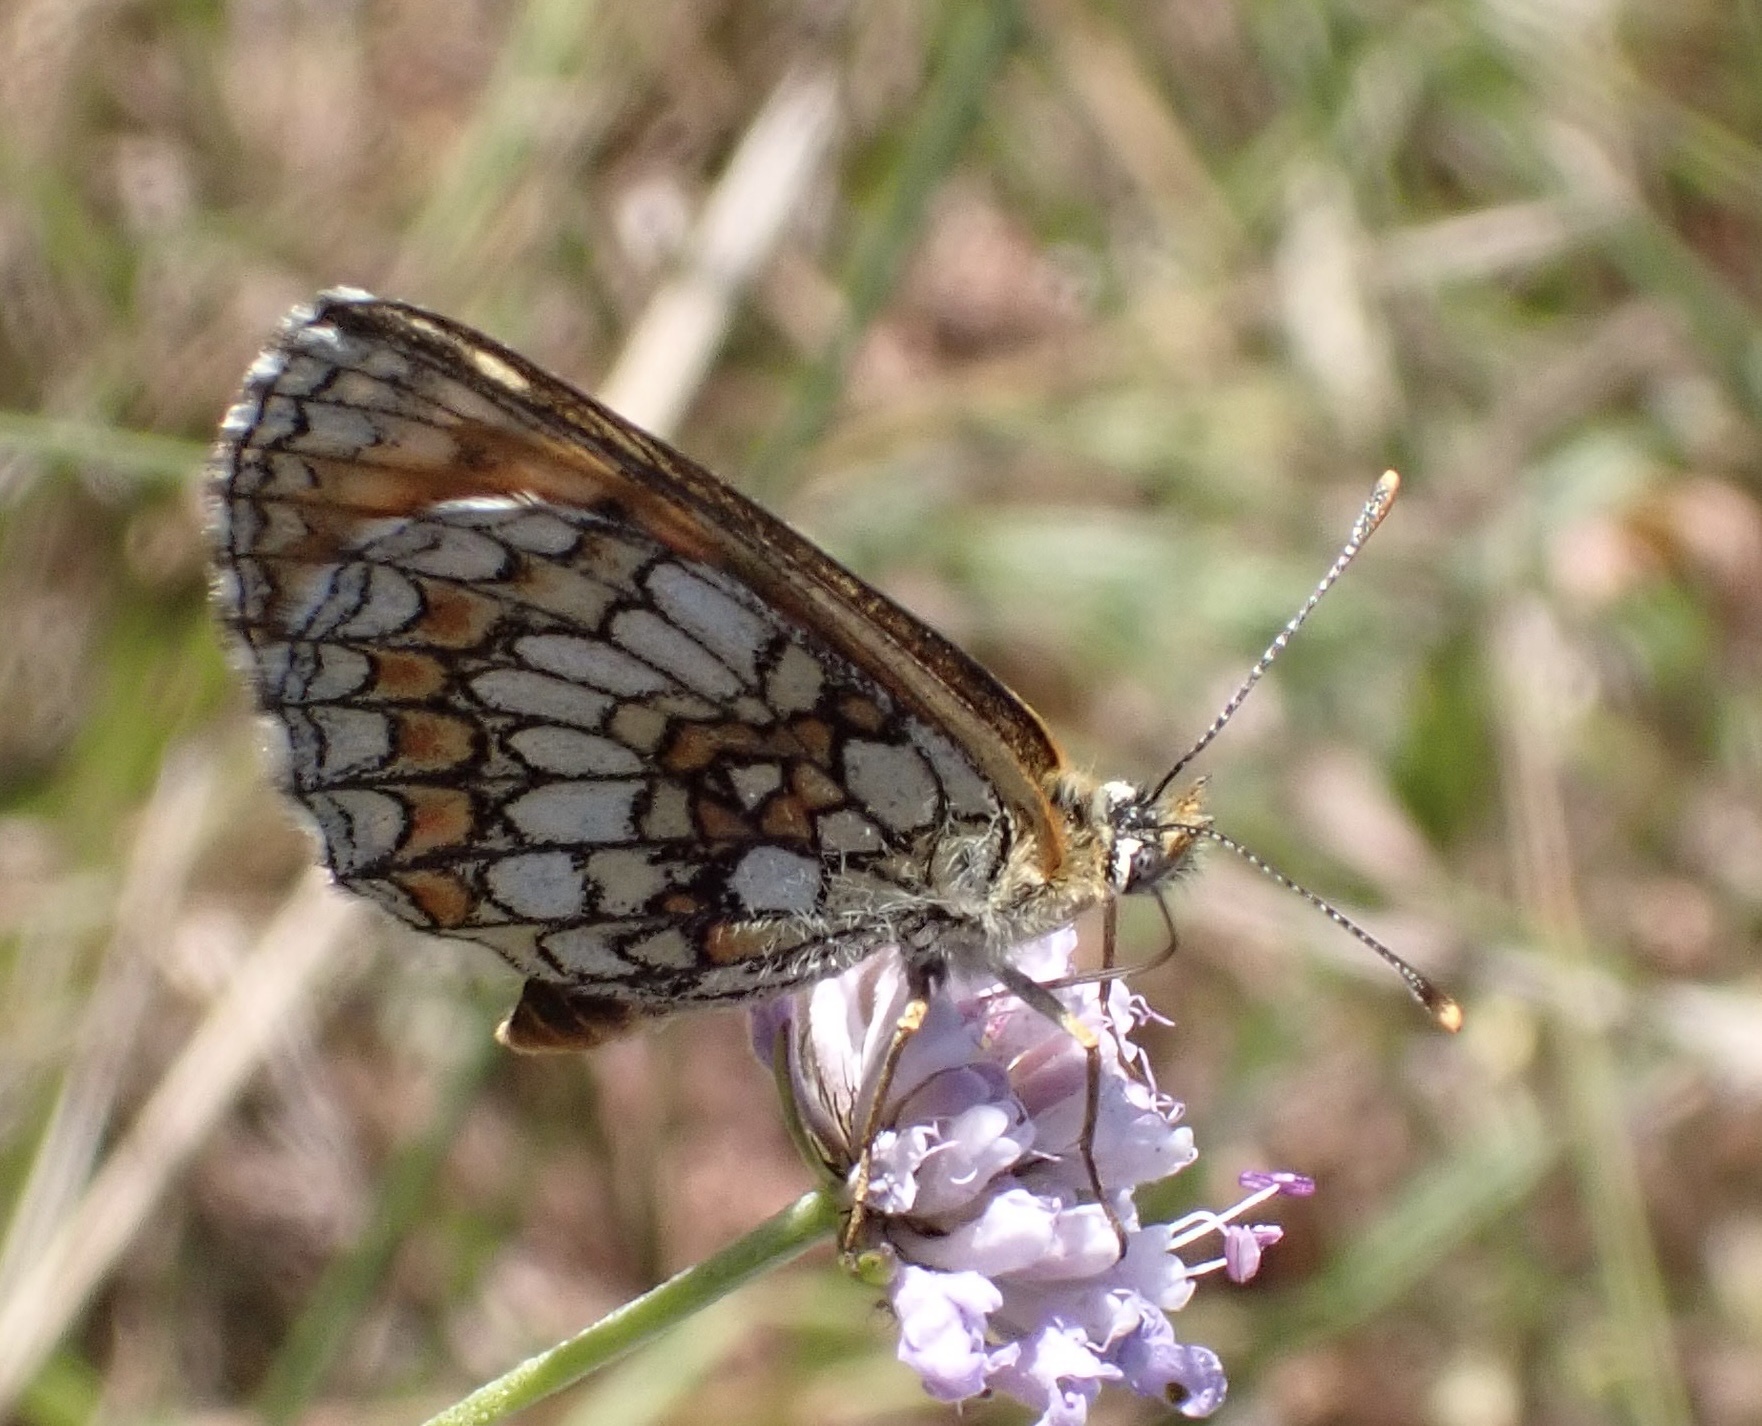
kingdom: Animalia
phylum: Arthropoda
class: Insecta
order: Lepidoptera
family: Nymphalidae
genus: Mellicta
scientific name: Mellicta parthenoides
